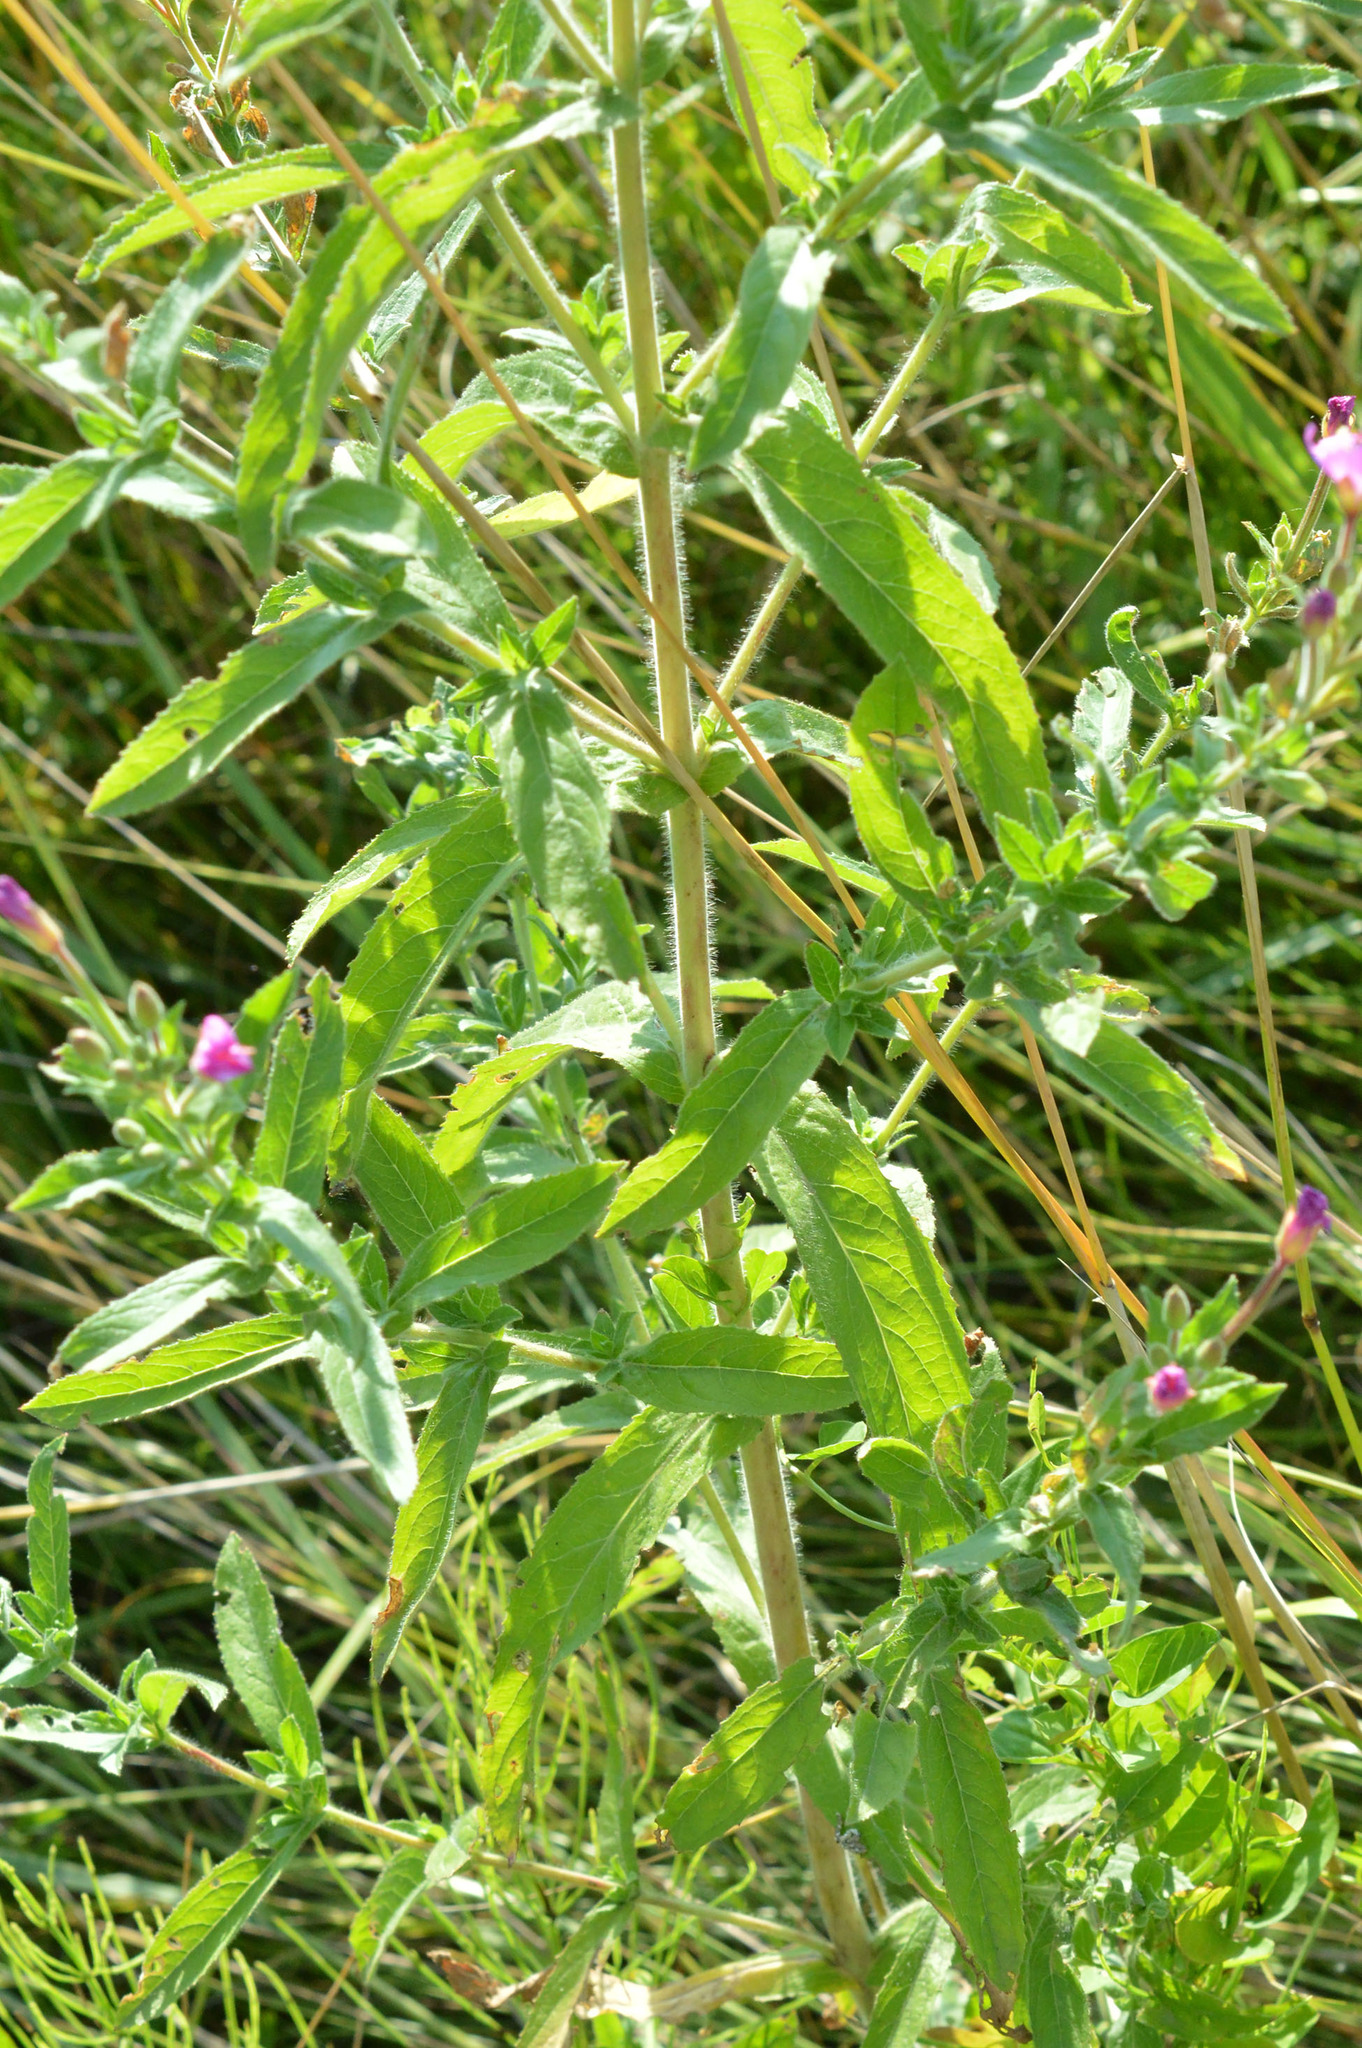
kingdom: Plantae
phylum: Tracheophyta
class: Magnoliopsida
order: Myrtales
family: Onagraceae
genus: Epilobium
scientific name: Epilobium hirsutum
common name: Great willowherb
